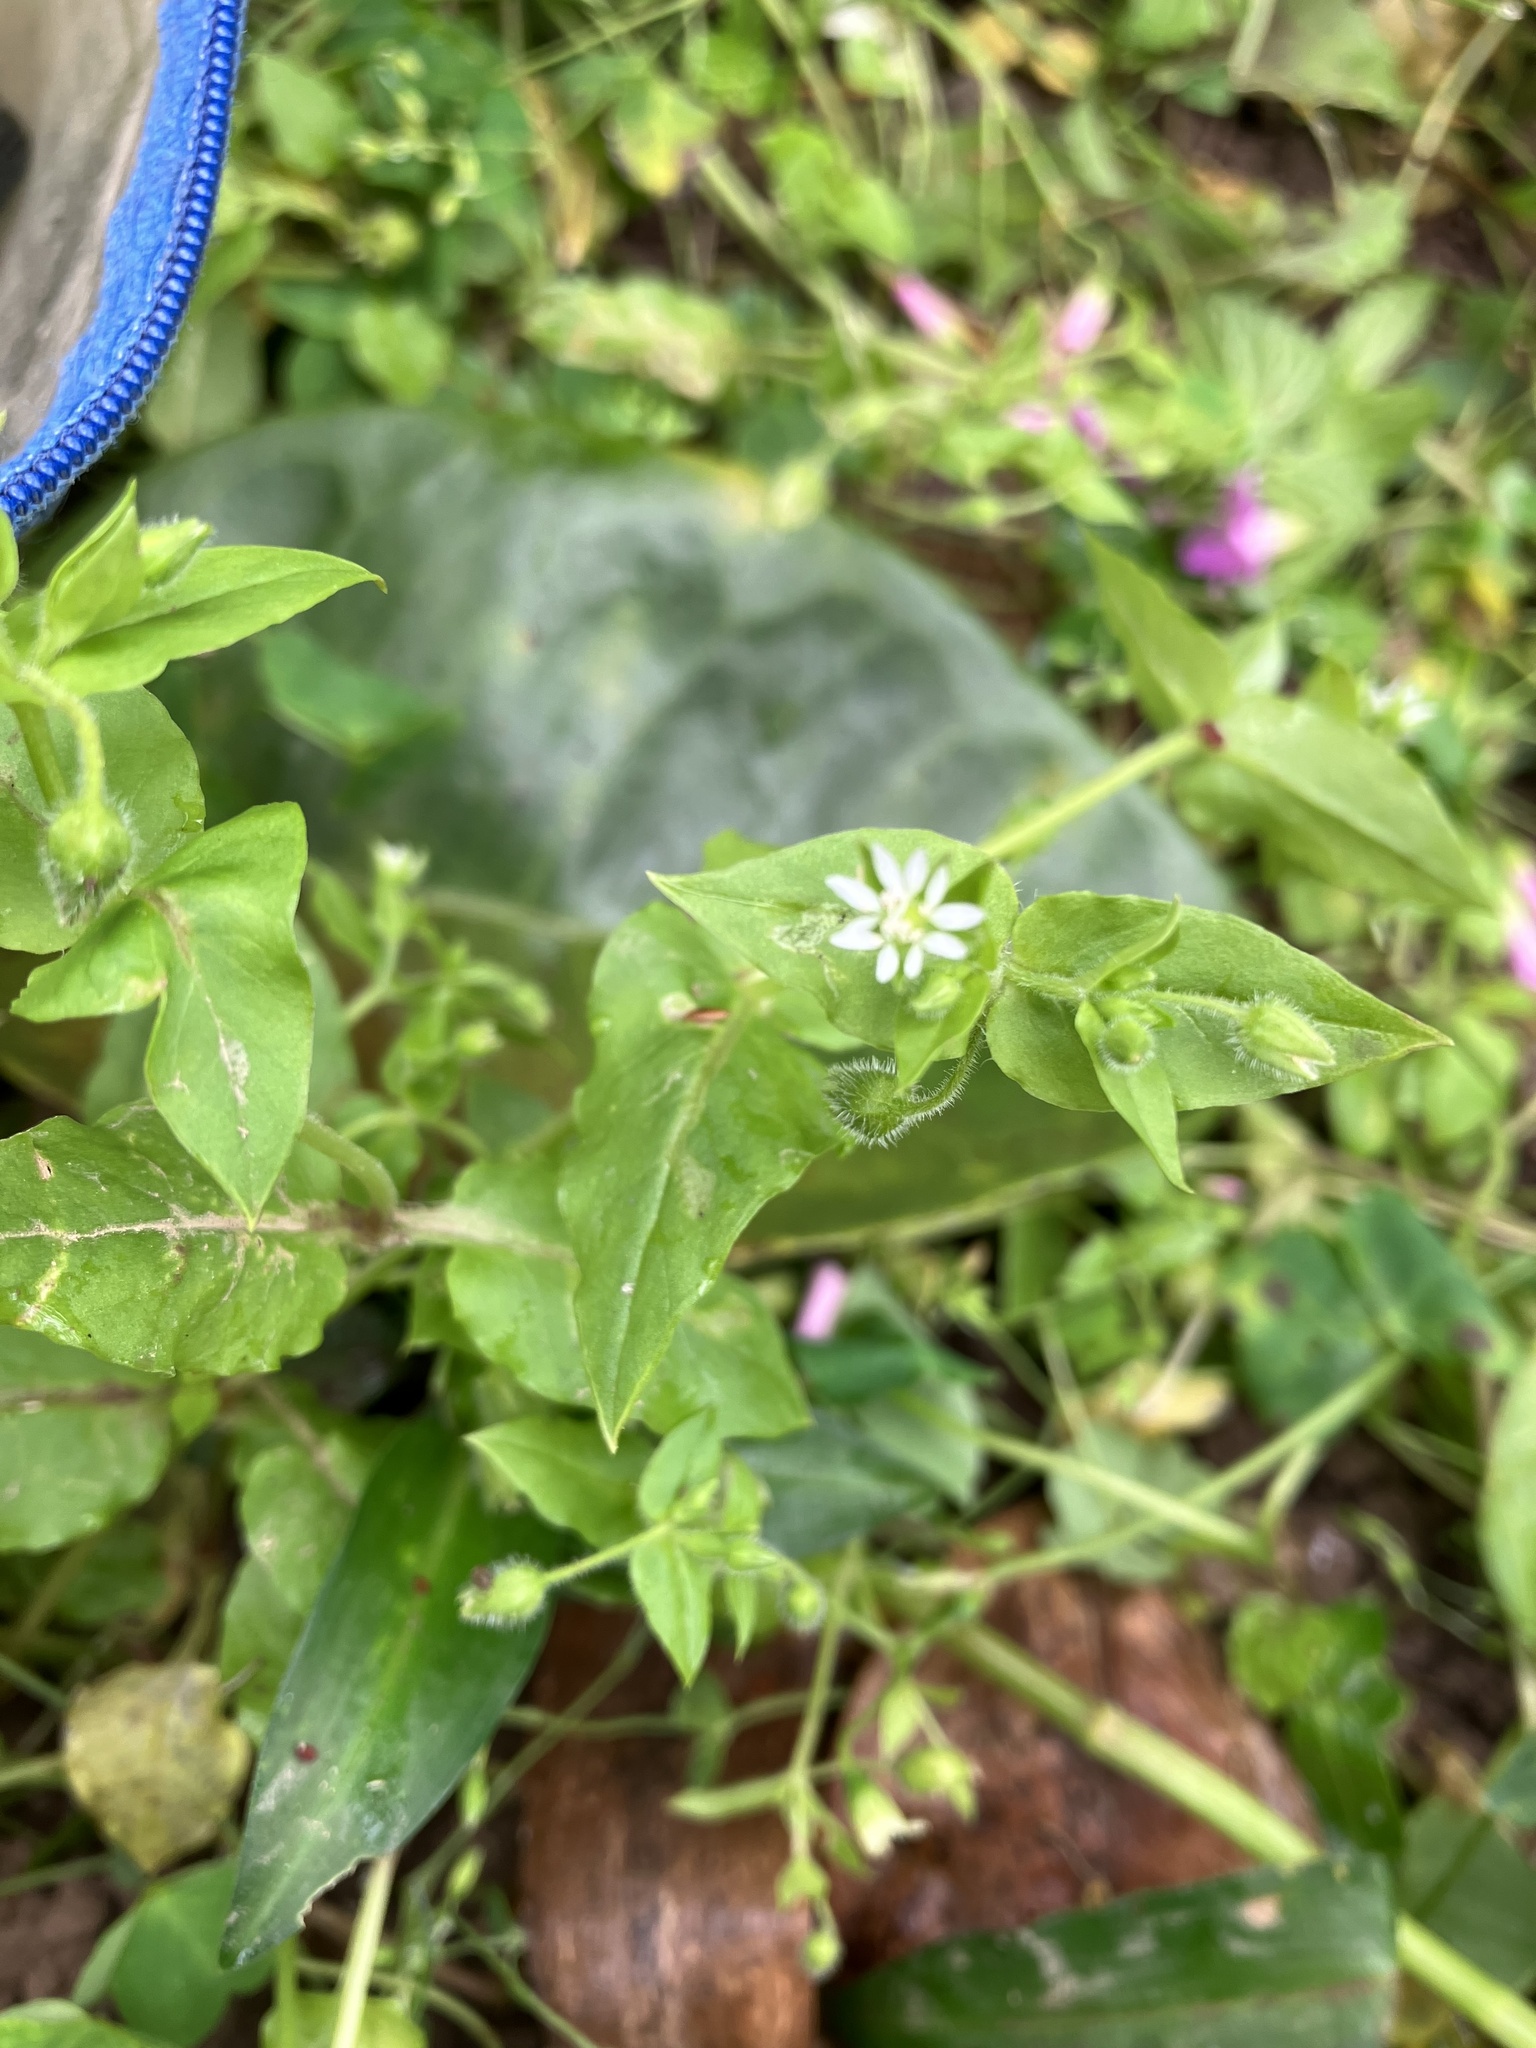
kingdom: Plantae
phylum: Tracheophyta
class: Magnoliopsida
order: Caryophyllales
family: Caryophyllaceae
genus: Stellaria
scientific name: Stellaria aquatica
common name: Water chickweed
